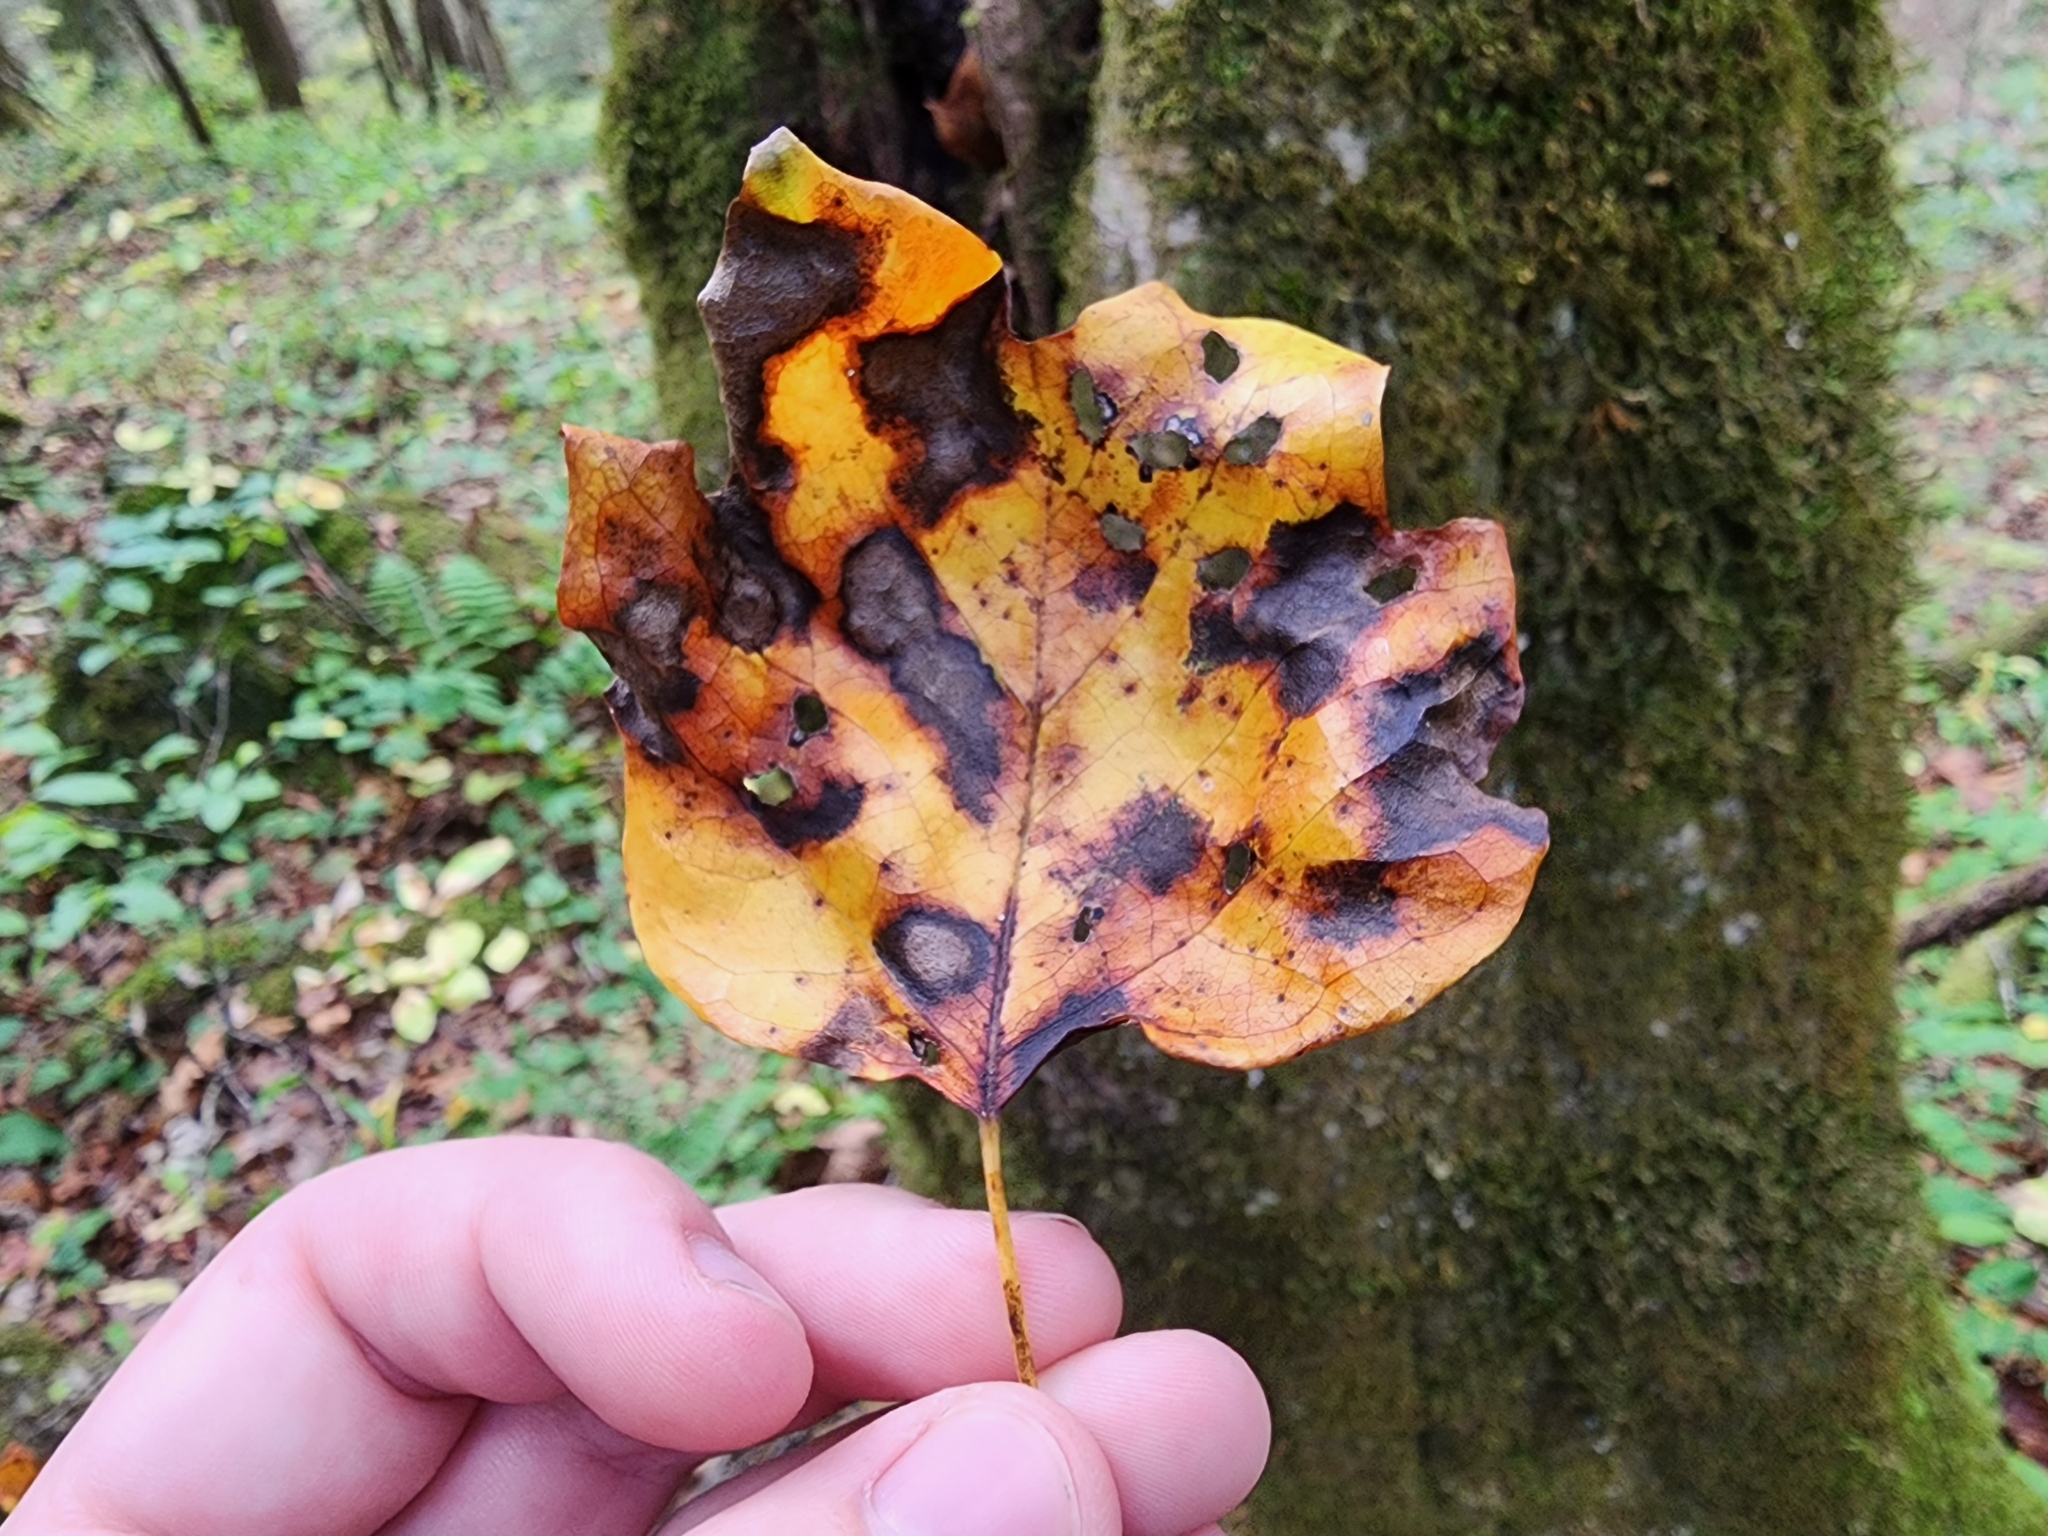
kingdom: Plantae
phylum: Tracheophyta
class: Magnoliopsida
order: Magnoliales
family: Magnoliaceae
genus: Liriodendron
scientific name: Liriodendron tulipifera
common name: Tulip tree
